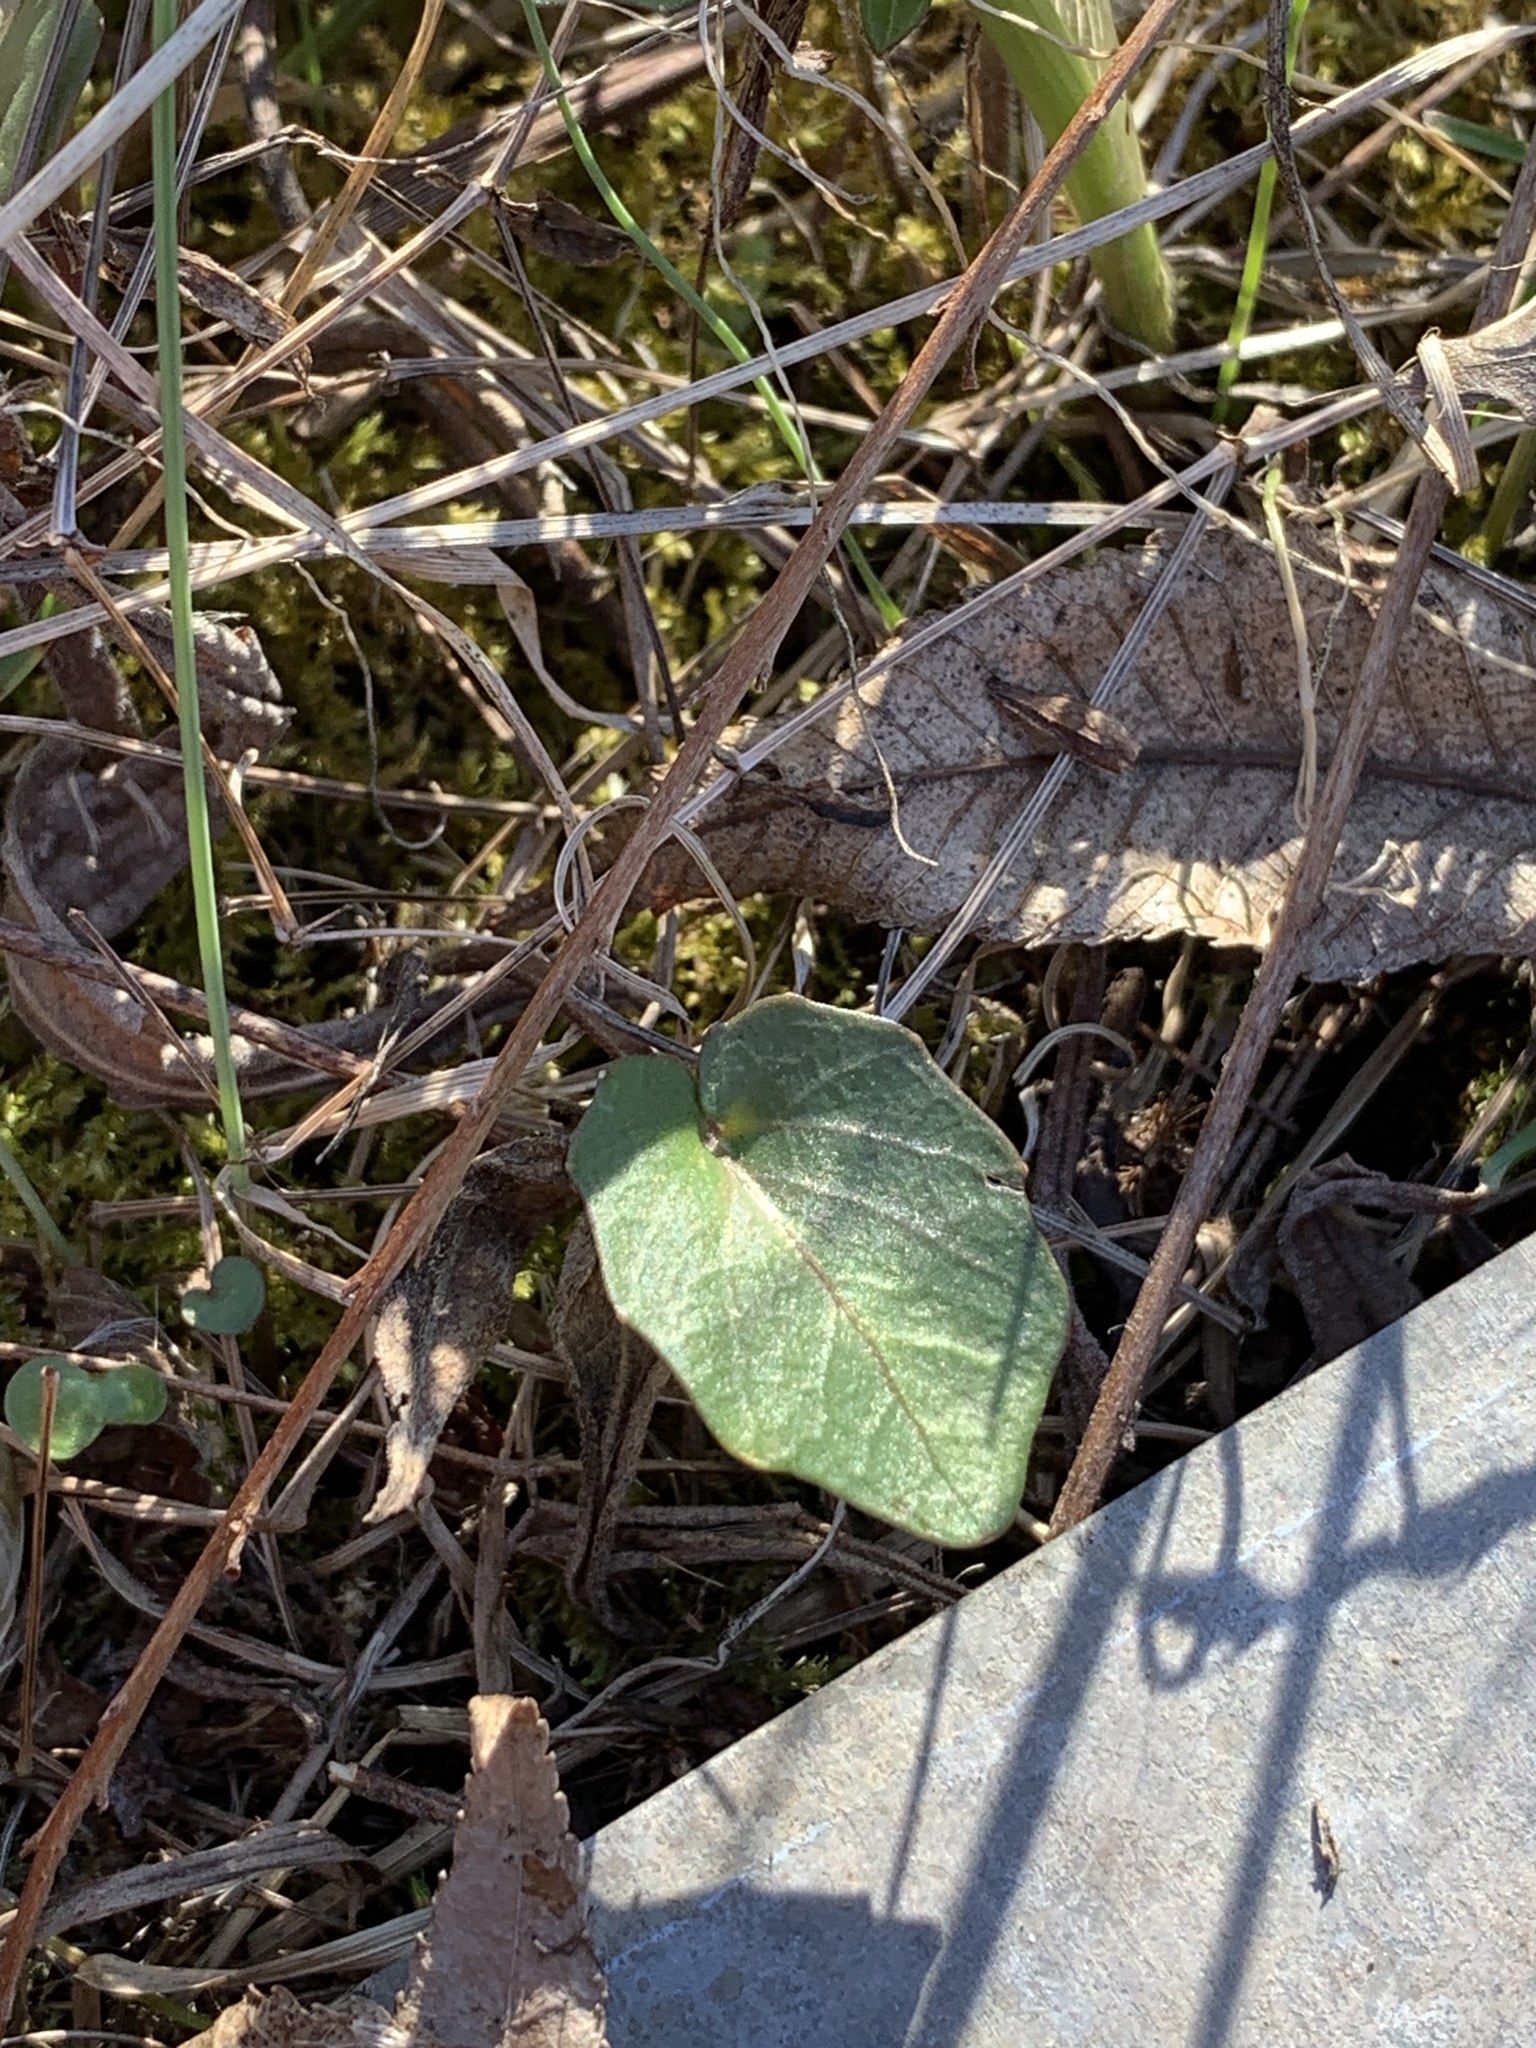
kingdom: Plantae
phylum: Tracheophyta
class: Magnoliopsida
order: Brassicales
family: Brassicaceae
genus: Cardamine
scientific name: Cardamine douglassii
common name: Purple cress
